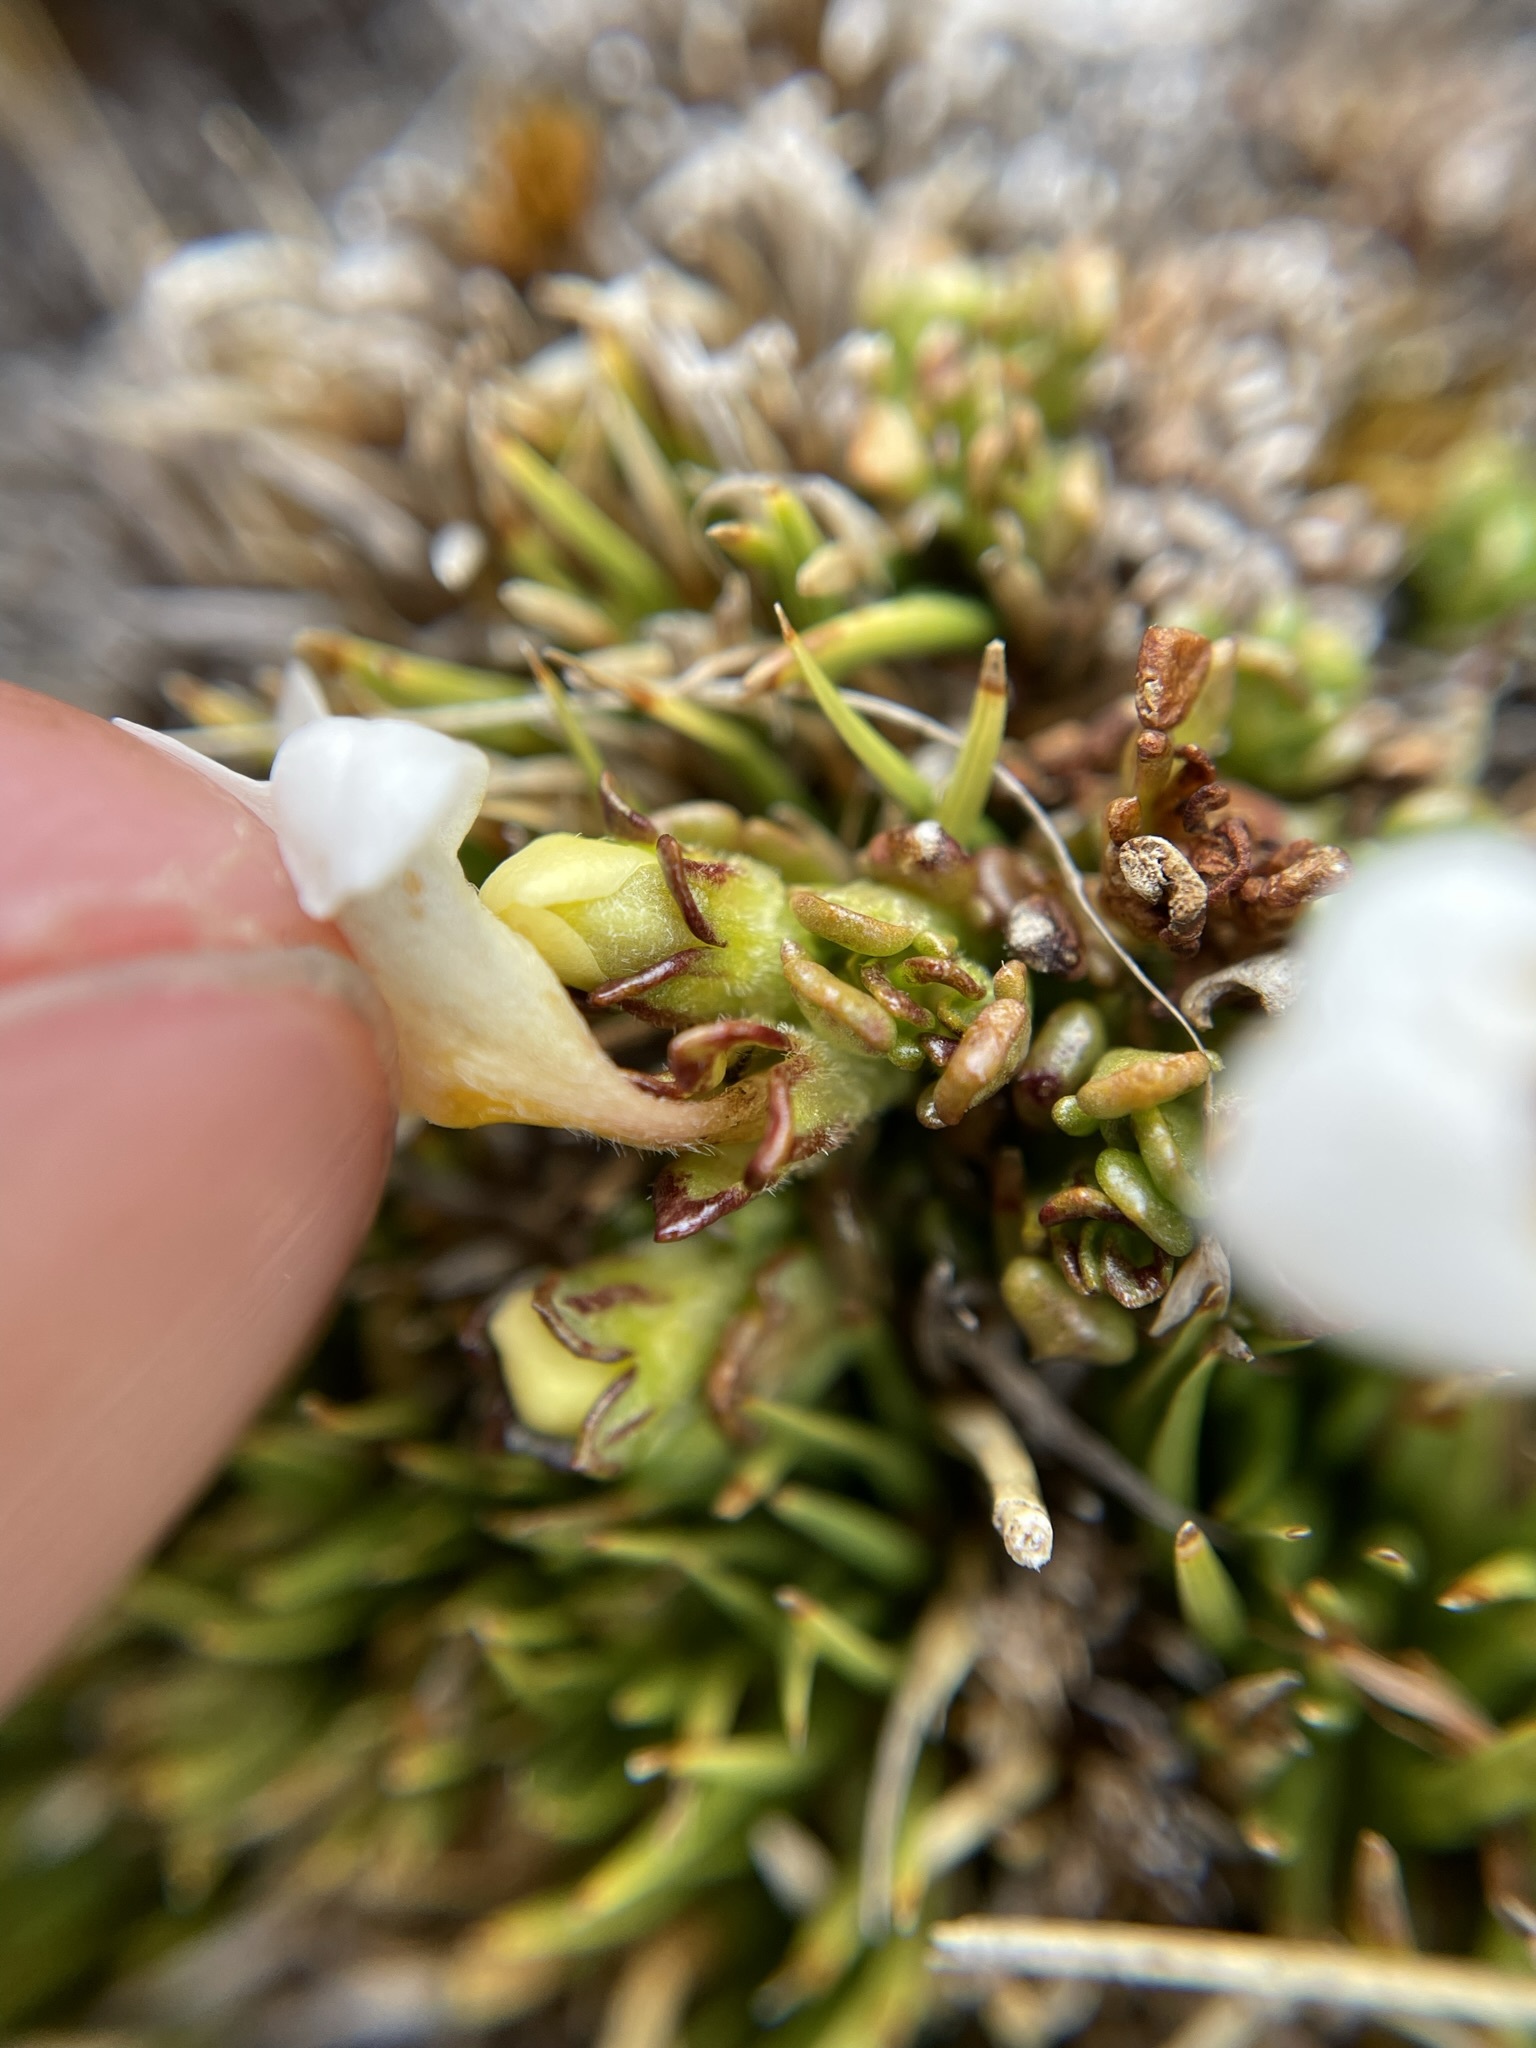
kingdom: Plantae
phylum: Tracheophyta
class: Magnoliopsida
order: Lamiales
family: Orobanchaceae
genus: Euphrasia
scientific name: Euphrasia revoluta
